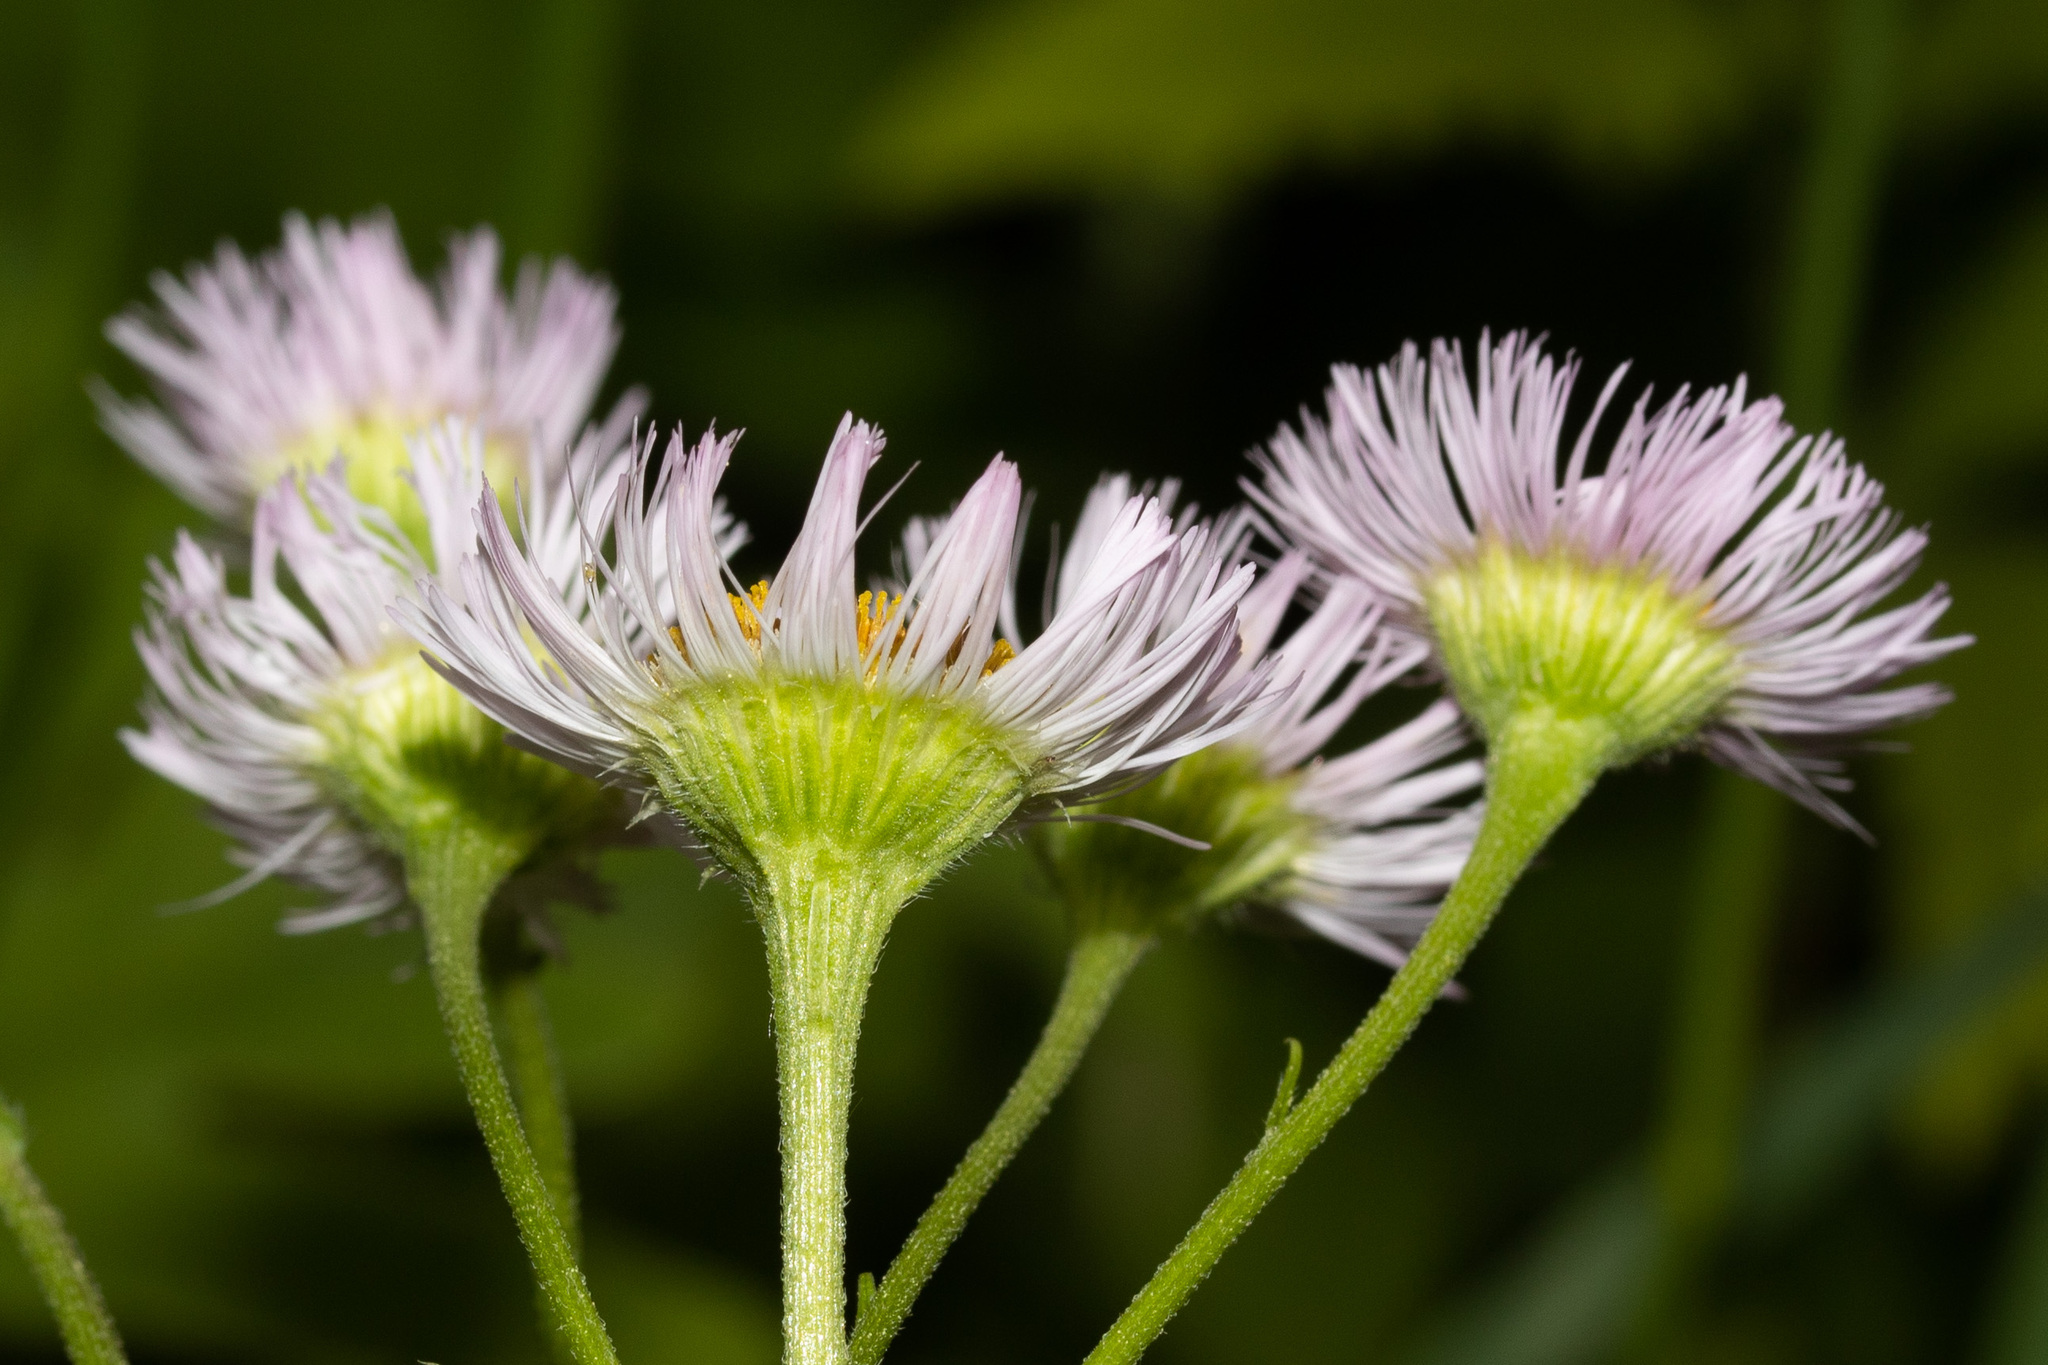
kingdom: Plantae
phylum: Tracheophyta
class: Magnoliopsida
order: Asterales
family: Asteraceae
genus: Erigeron
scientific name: Erigeron philadelphicus
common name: Robin's-plantain
